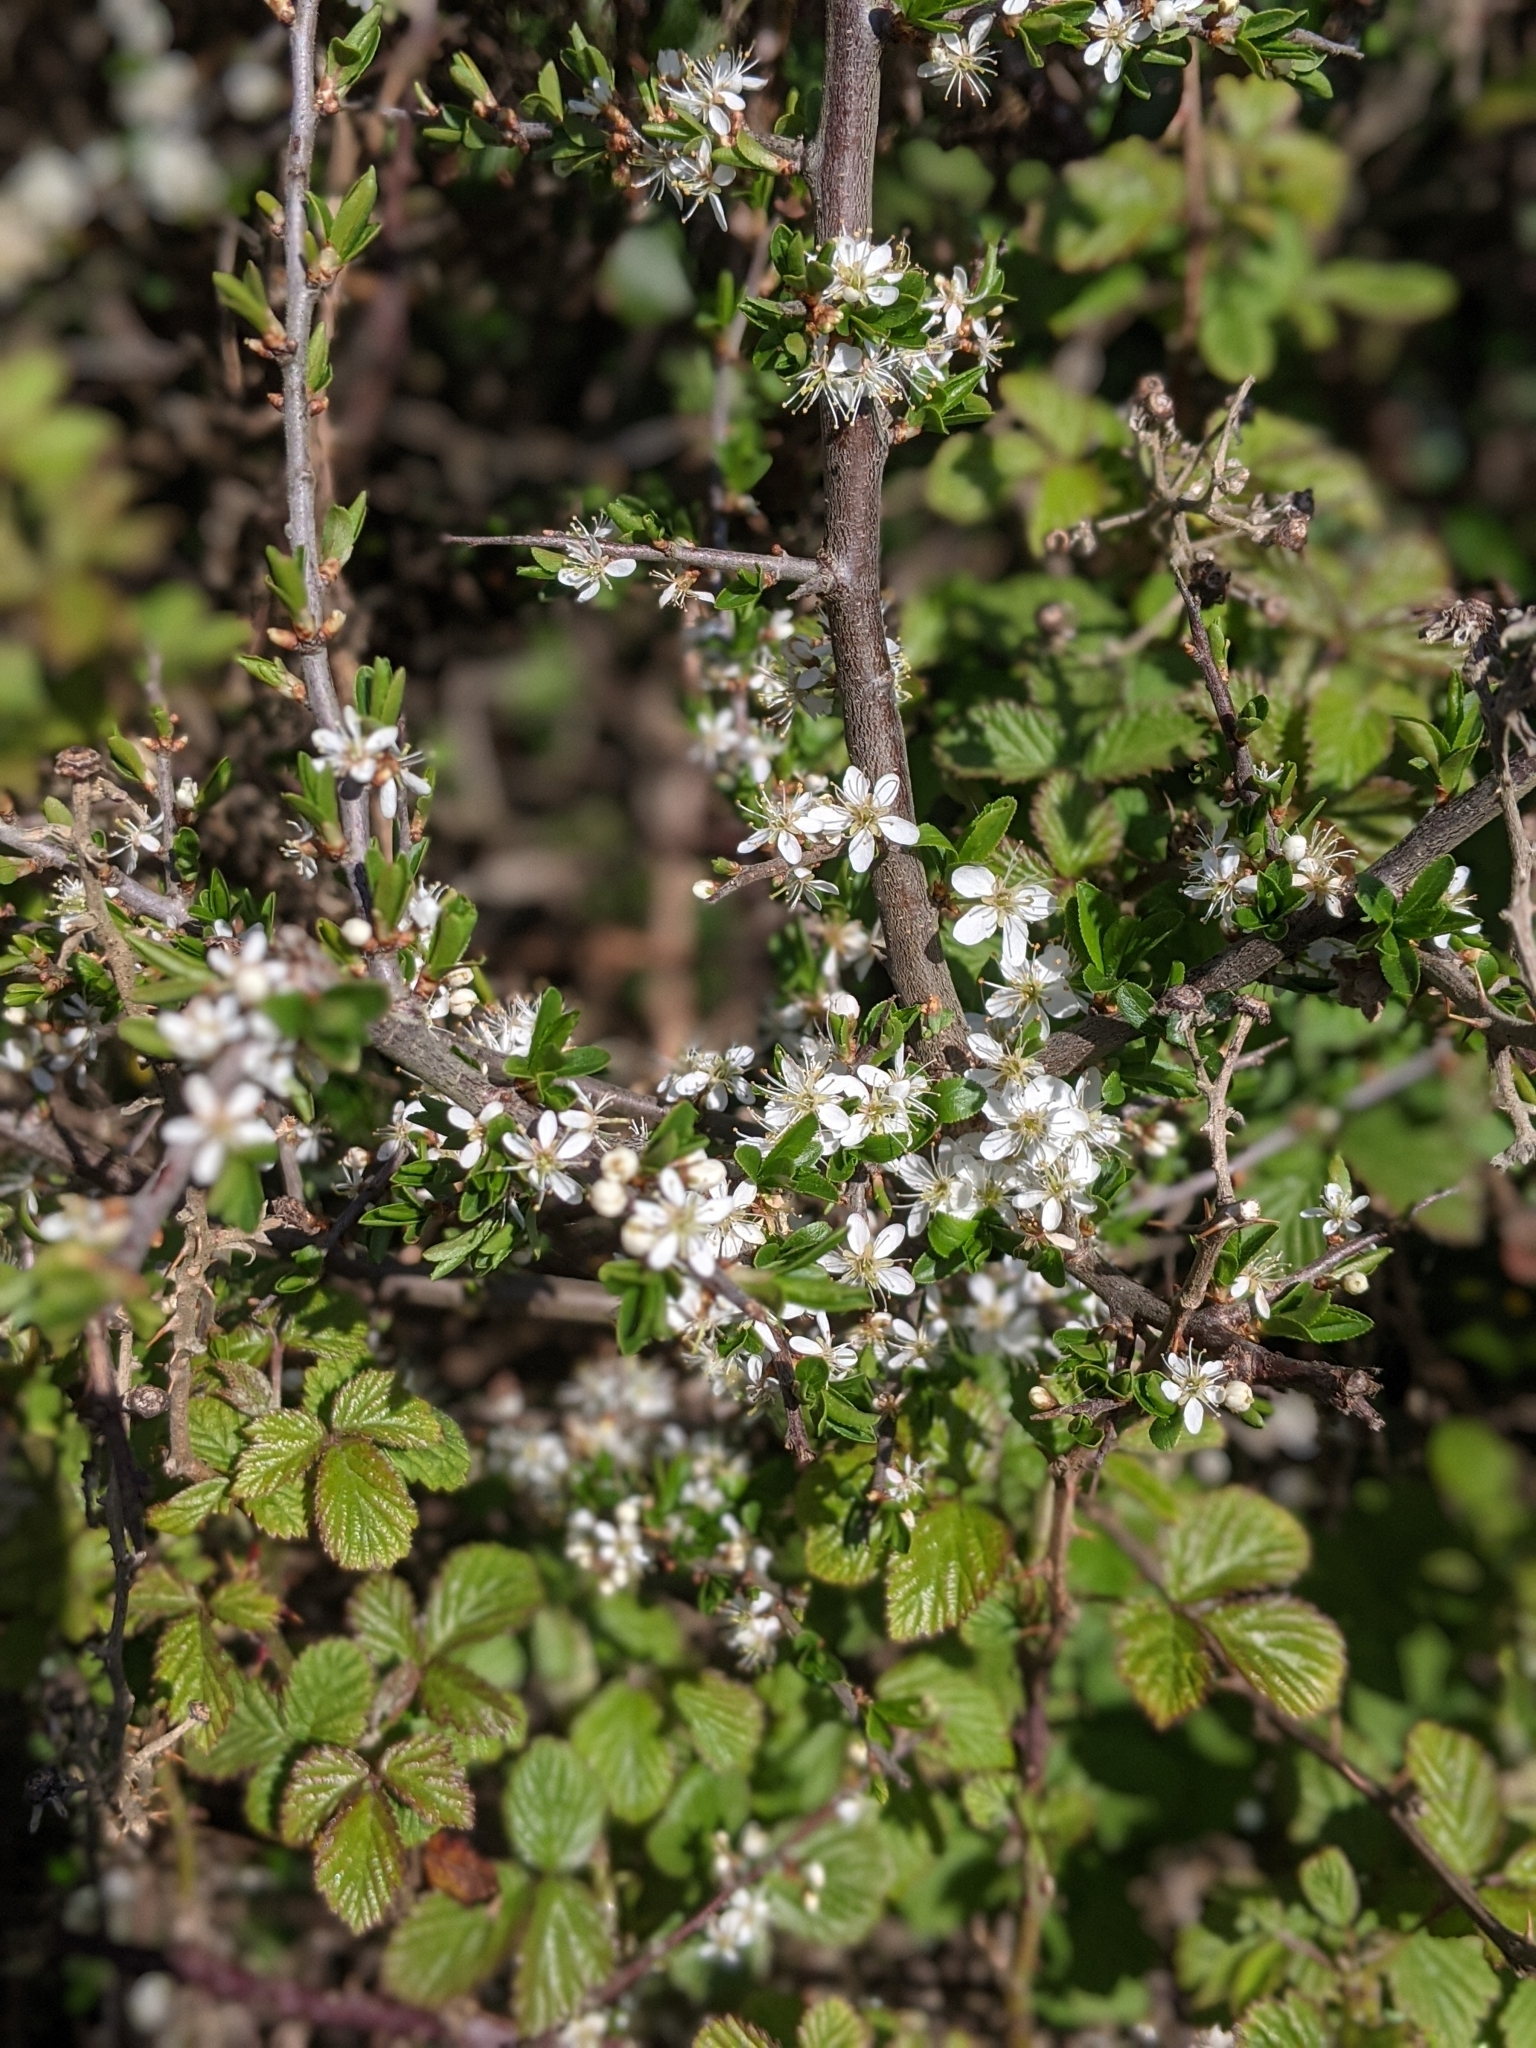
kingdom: Plantae
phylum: Tracheophyta
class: Magnoliopsida
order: Rosales
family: Rosaceae
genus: Prunus
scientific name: Prunus spinosa
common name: Blackthorn
